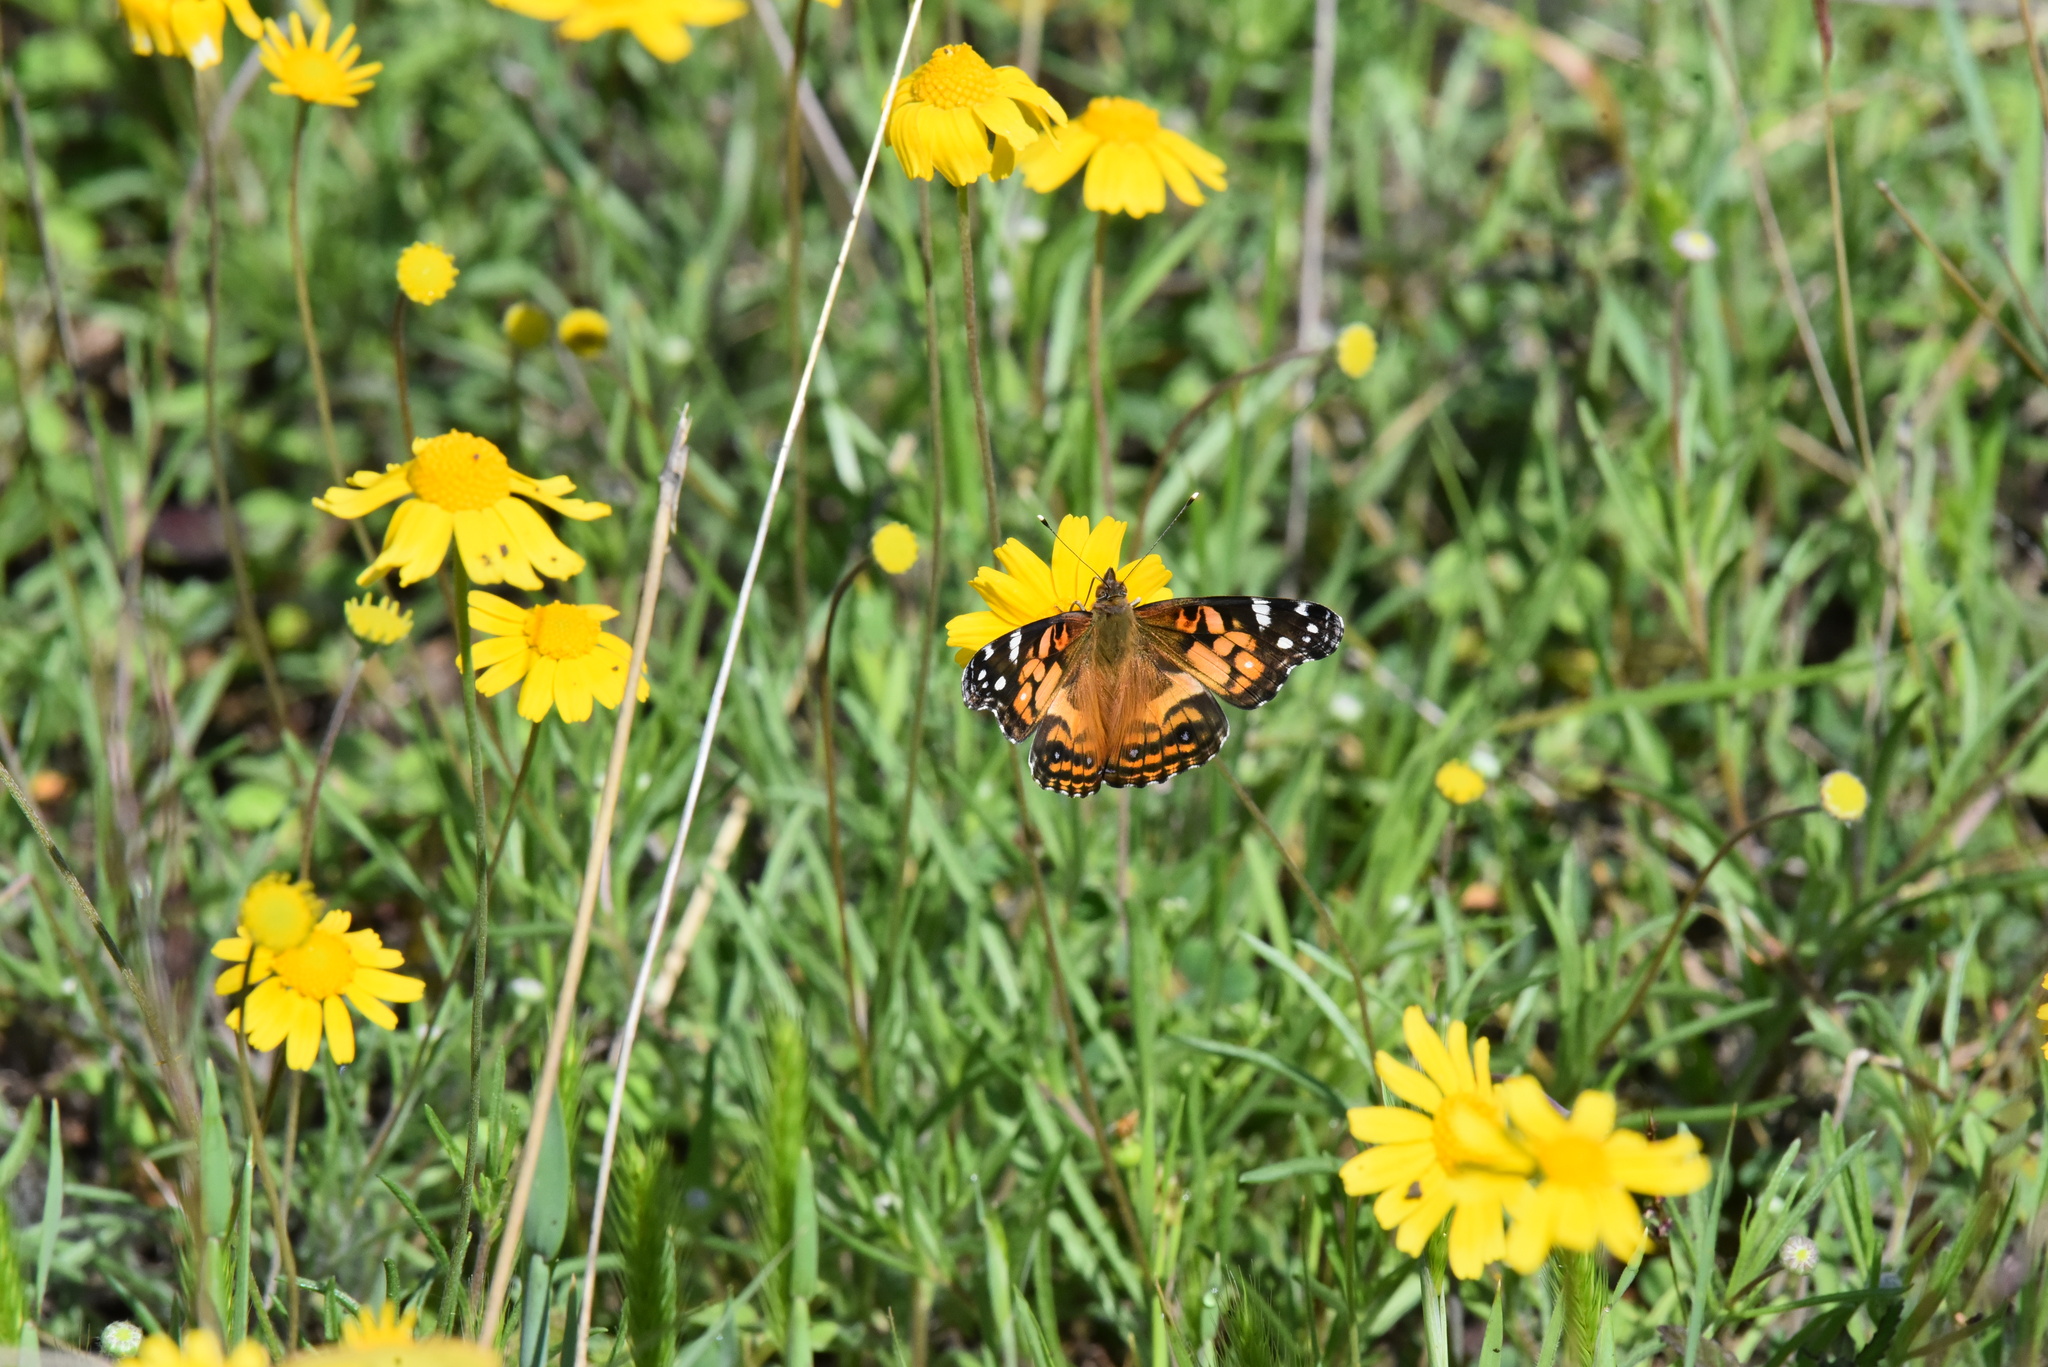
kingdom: Animalia
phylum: Arthropoda
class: Insecta
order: Lepidoptera
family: Nymphalidae
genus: Vanessa
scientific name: Vanessa virginiensis
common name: American lady
